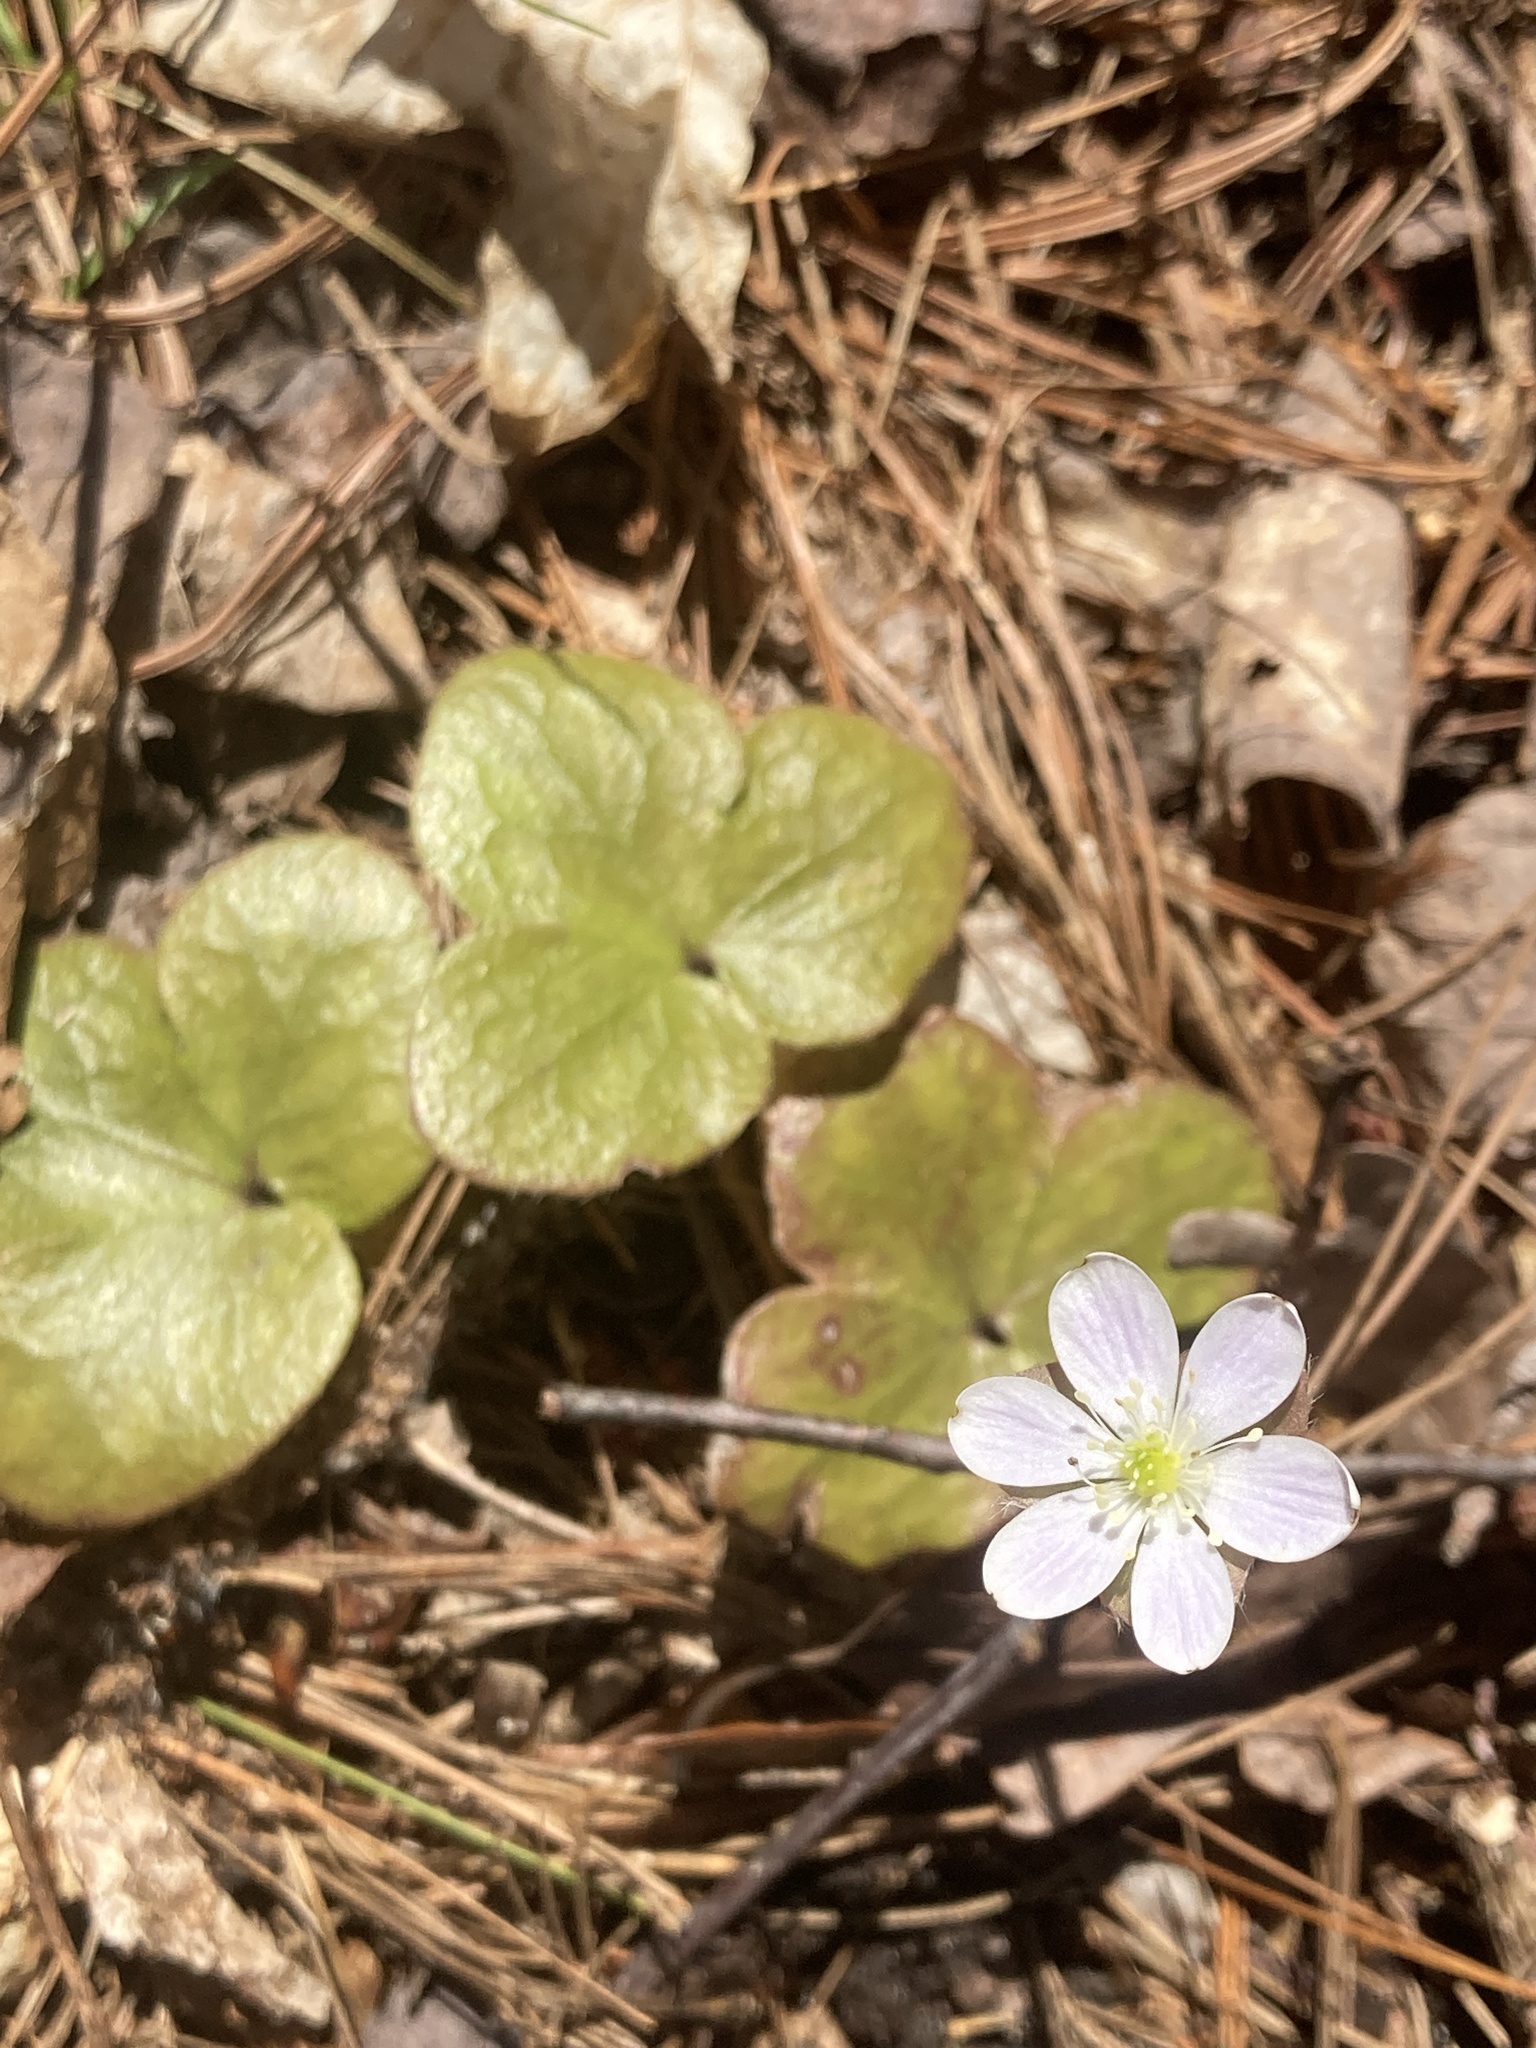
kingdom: Plantae
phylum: Tracheophyta
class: Magnoliopsida
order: Ranunculales
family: Ranunculaceae
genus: Hepatica
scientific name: Hepatica americana
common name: American hepatica
